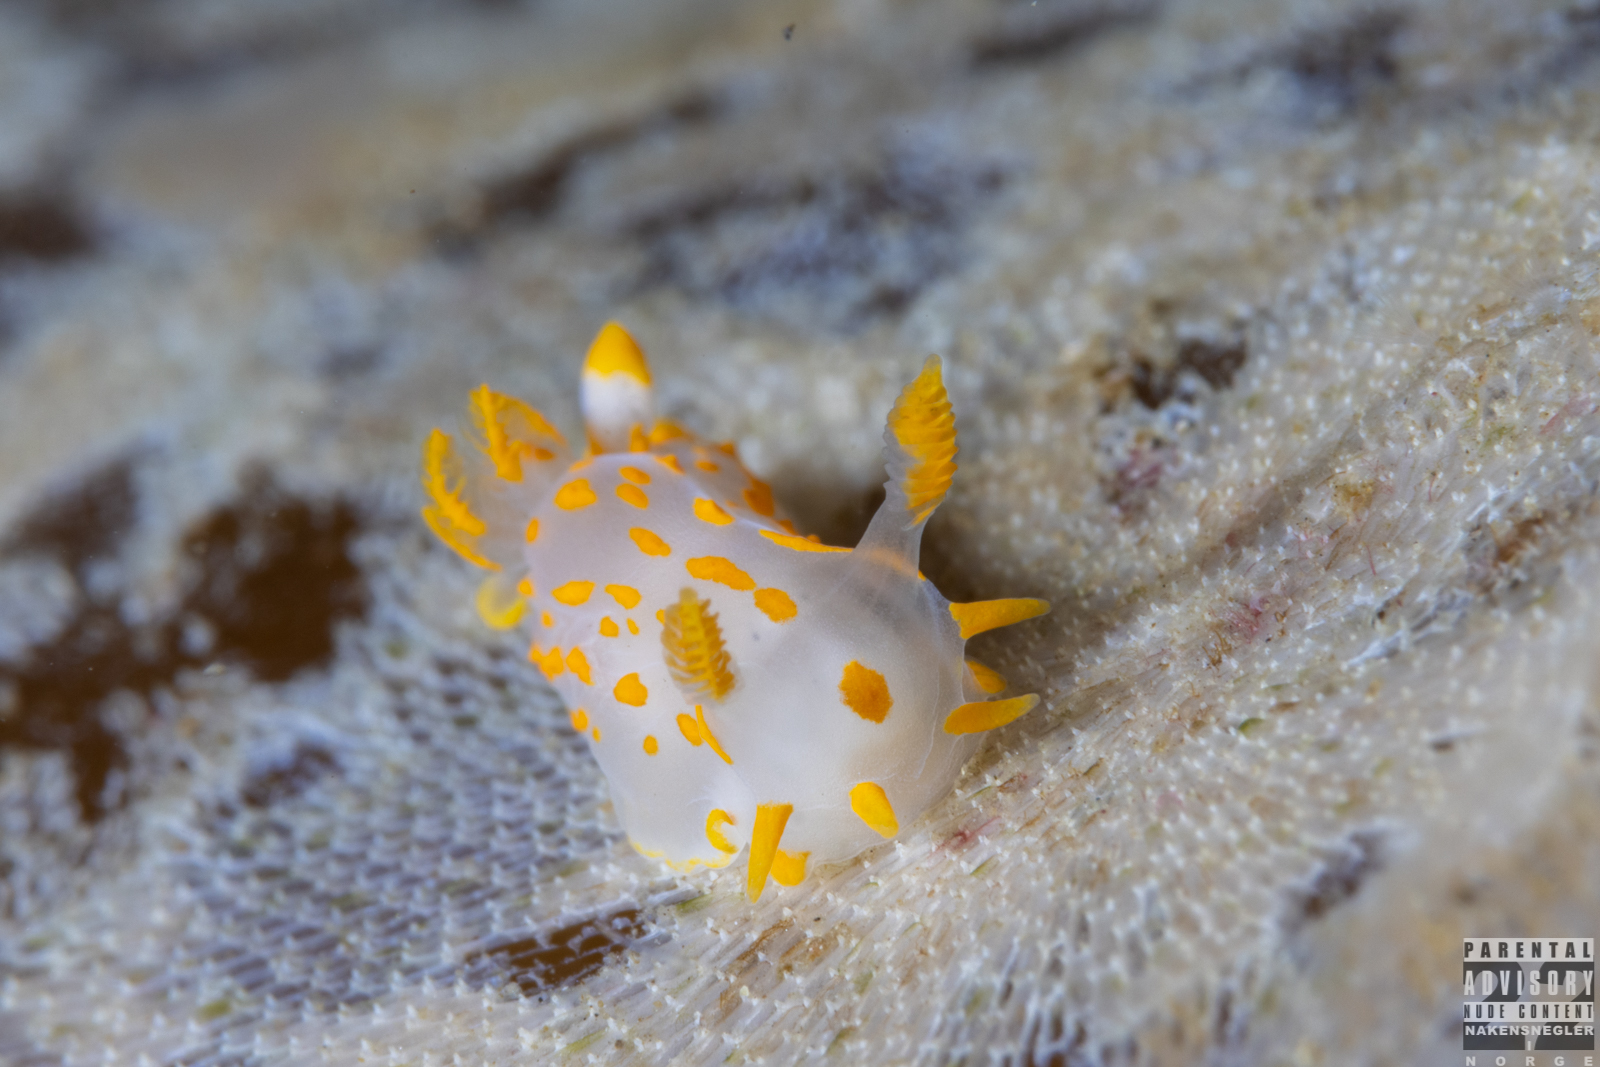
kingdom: Animalia
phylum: Mollusca
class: Gastropoda
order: Nudibranchia
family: Polyceridae
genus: Polycera
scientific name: Polycera quadrilineata
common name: Four-striped polycera
